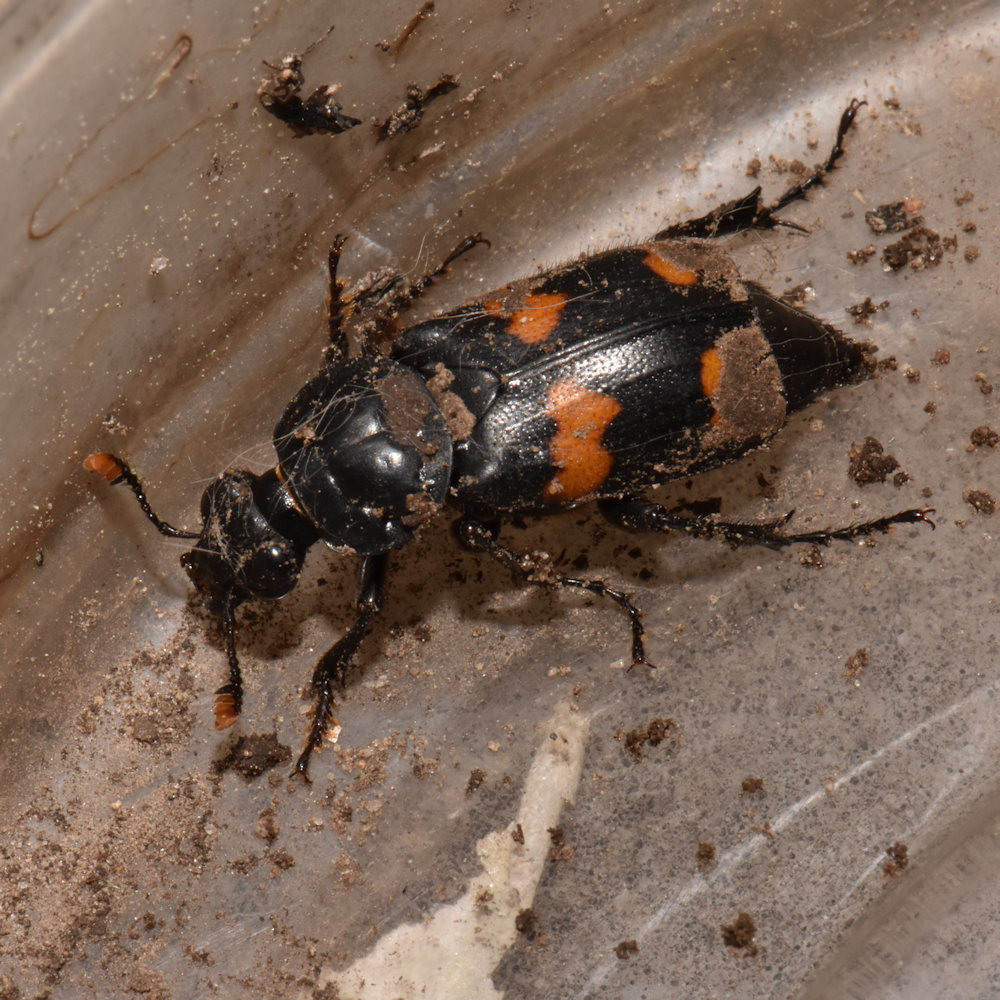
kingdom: Animalia
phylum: Arthropoda
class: Insecta
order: Coleoptera
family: Staphylinidae
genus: Nicrophorus
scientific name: Nicrophorus orbicollis
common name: Roundneck sexton beetle
